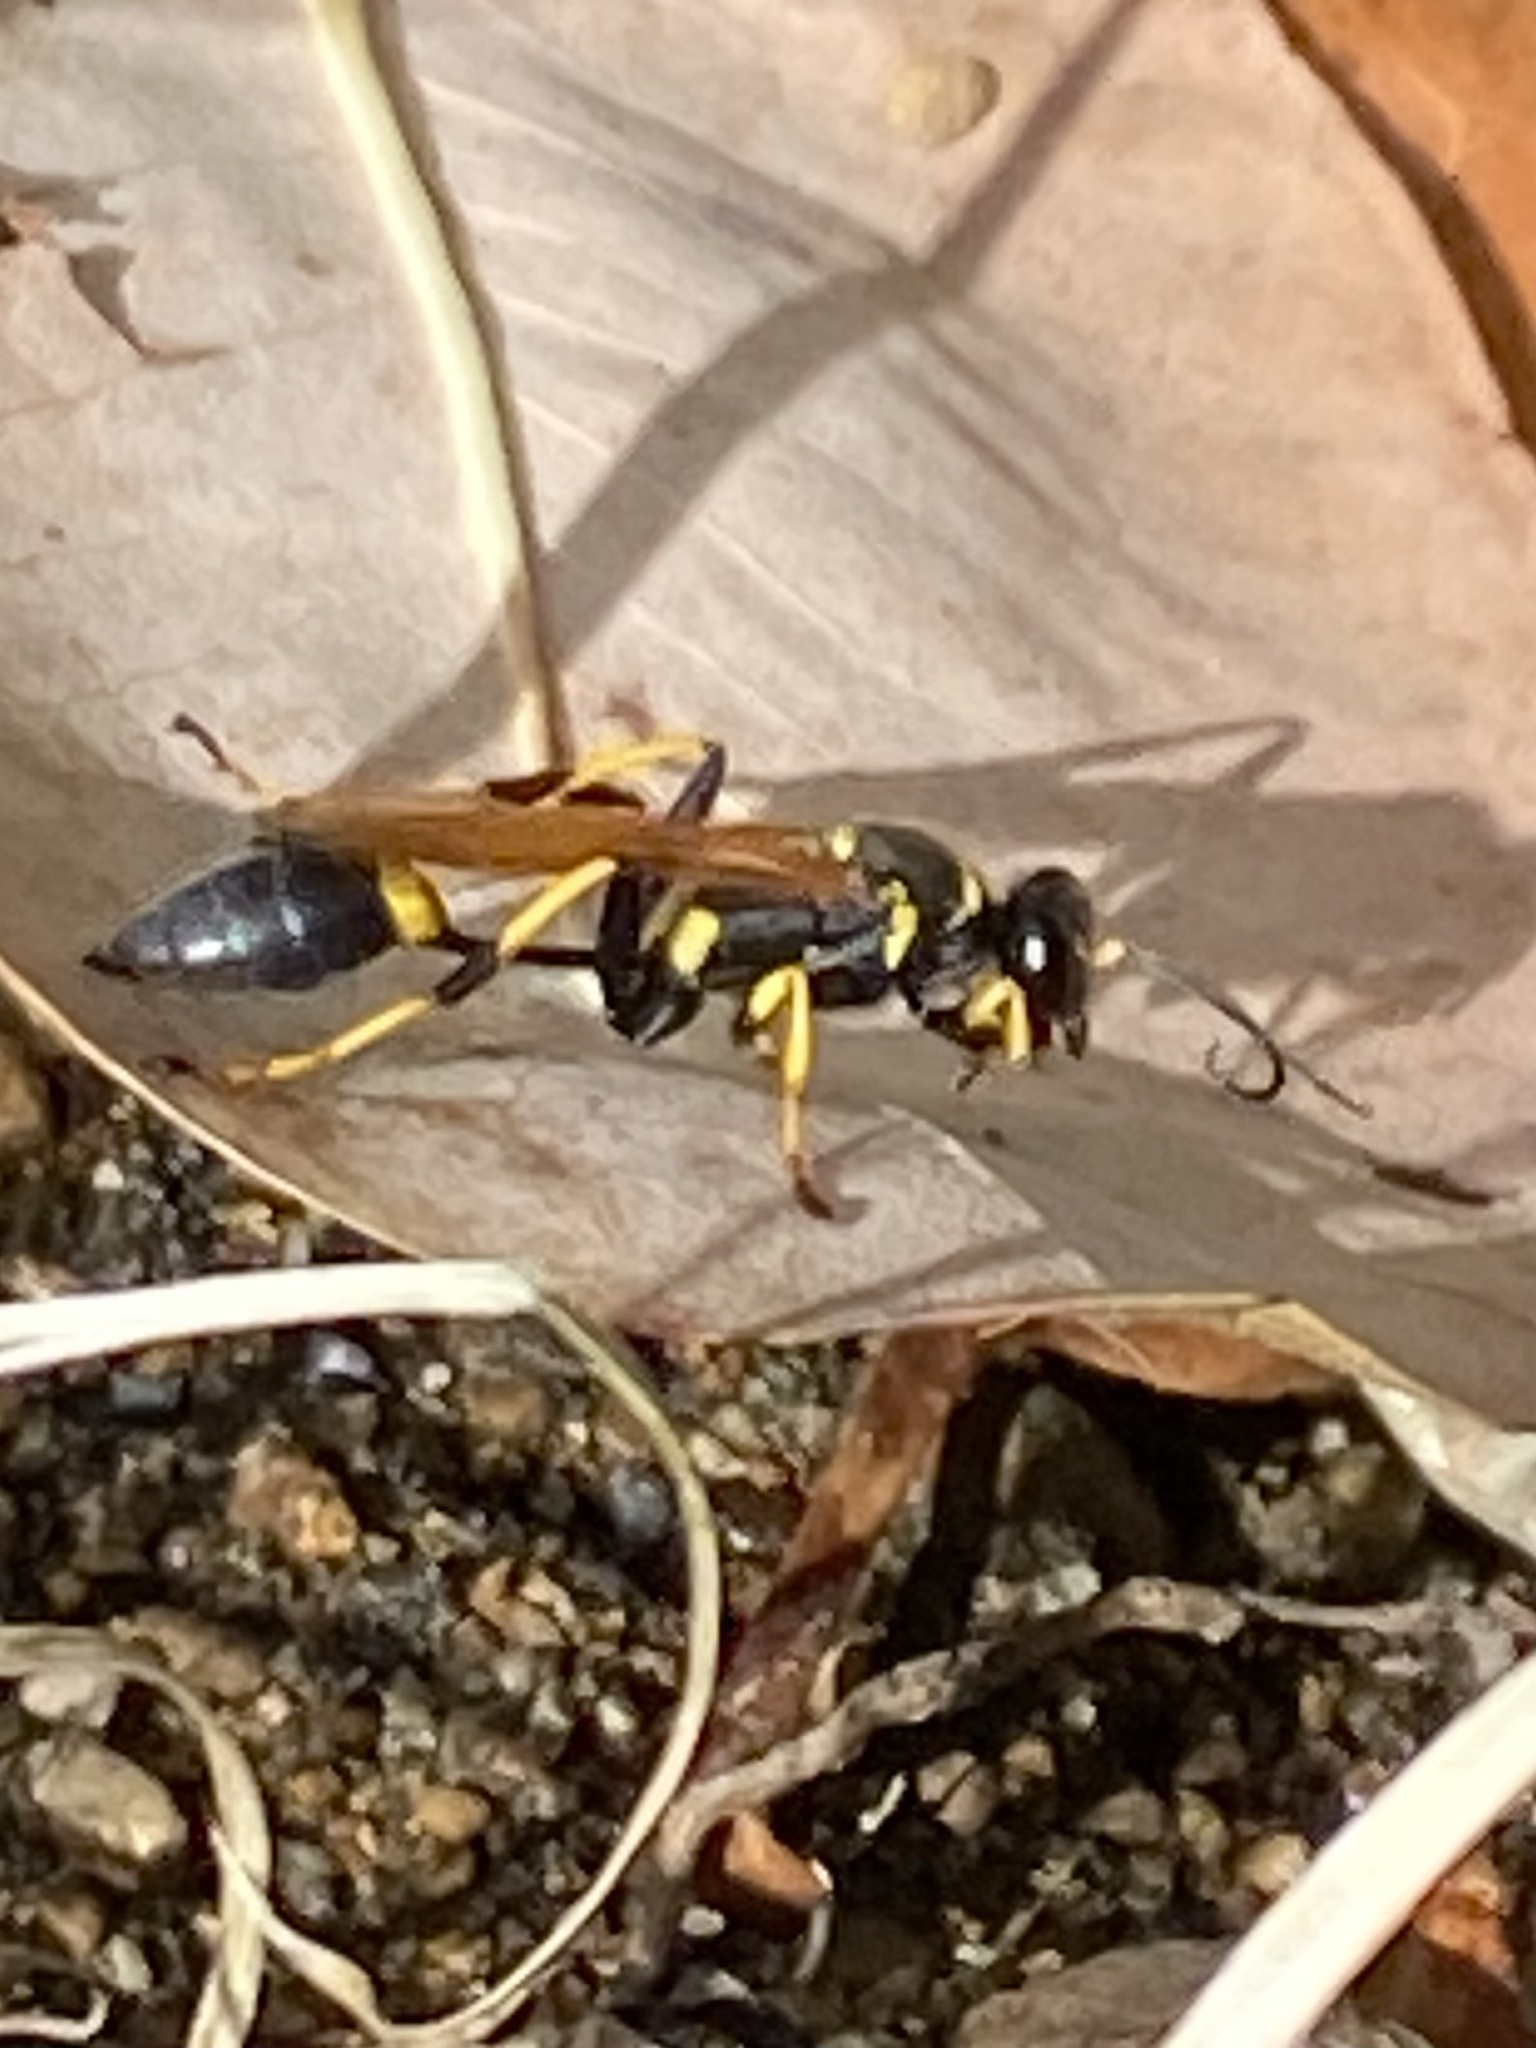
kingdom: Animalia
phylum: Arthropoda
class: Insecta
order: Hymenoptera
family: Sphecidae
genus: Sceliphron
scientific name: Sceliphron caementarium
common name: Mud dauber
